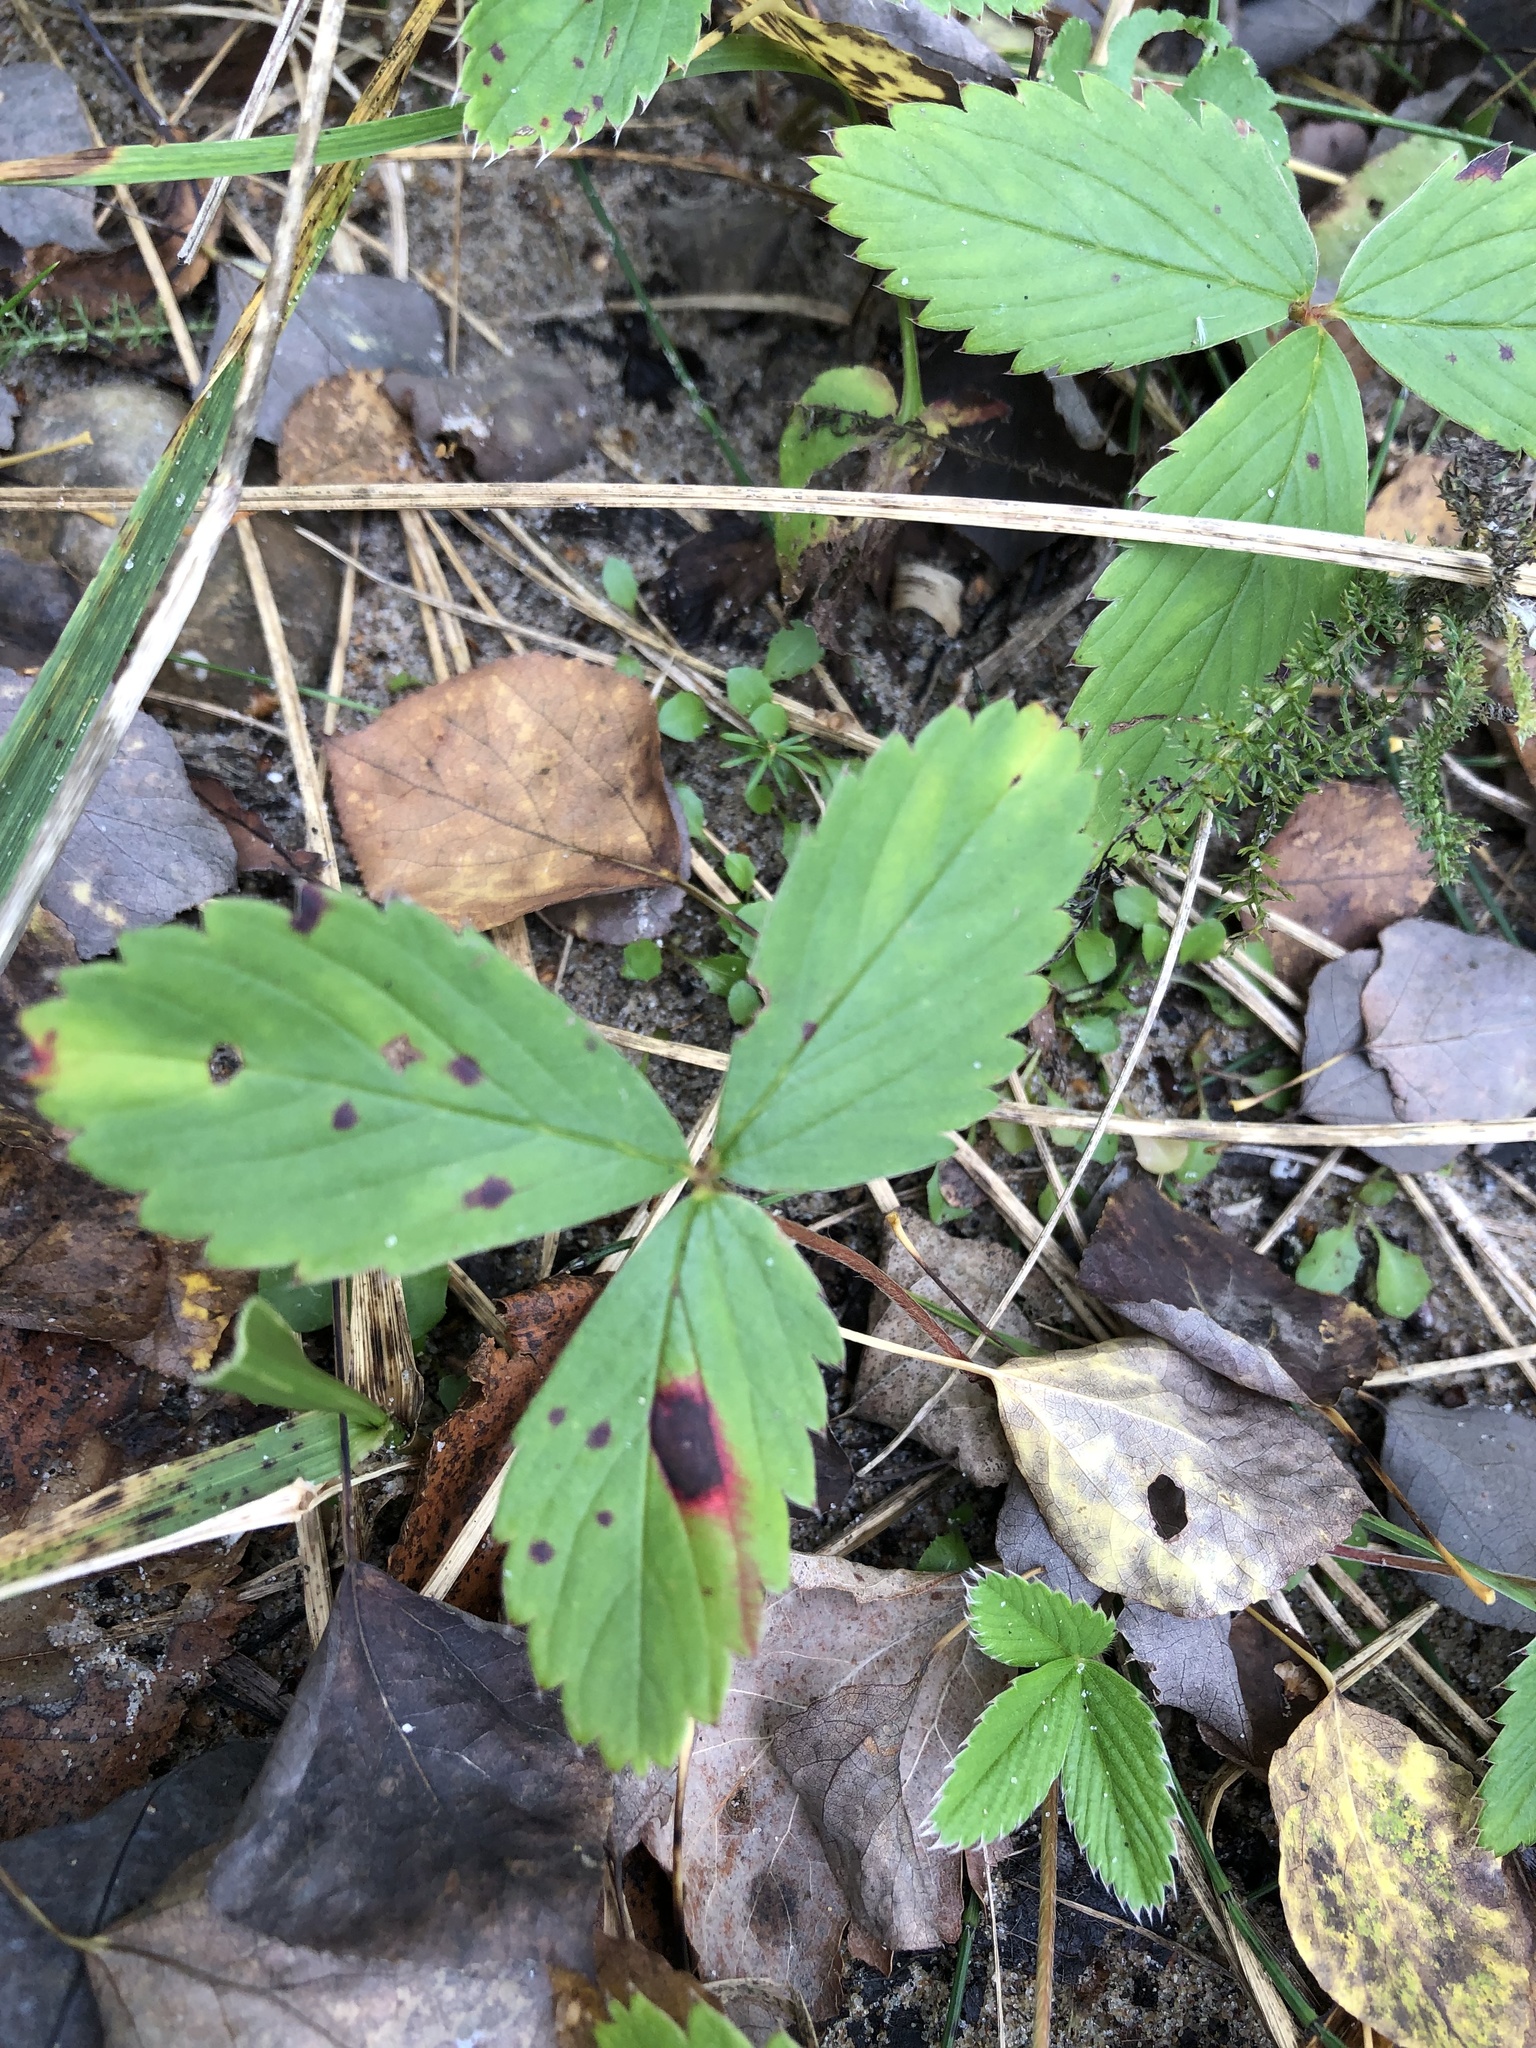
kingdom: Plantae
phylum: Tracheophyta
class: Magnoliopsida
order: Rosales
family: Rosaceae
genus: Fragaria
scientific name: Fragaria virginiana
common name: Thickleaved wild strawberry
